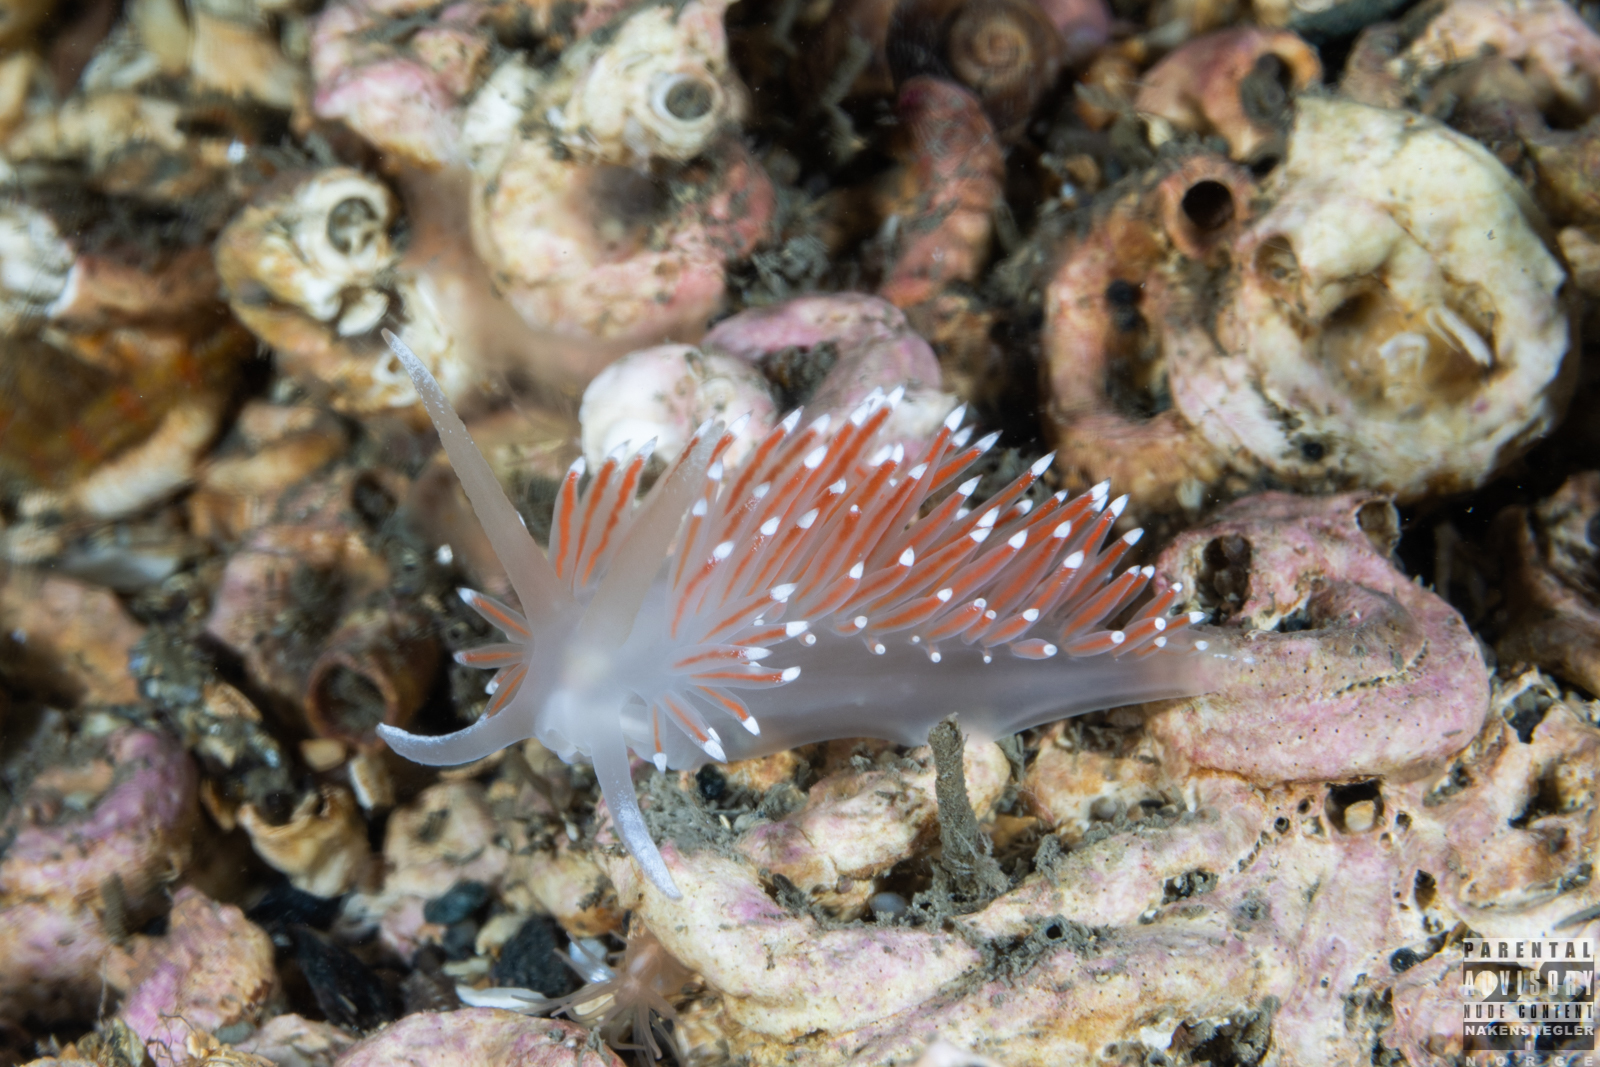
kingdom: Animalia
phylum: Mollusca
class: Gastropoda
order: Nudibranchia
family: Coryphellidae
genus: Coryphella
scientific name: Coryphella browni
